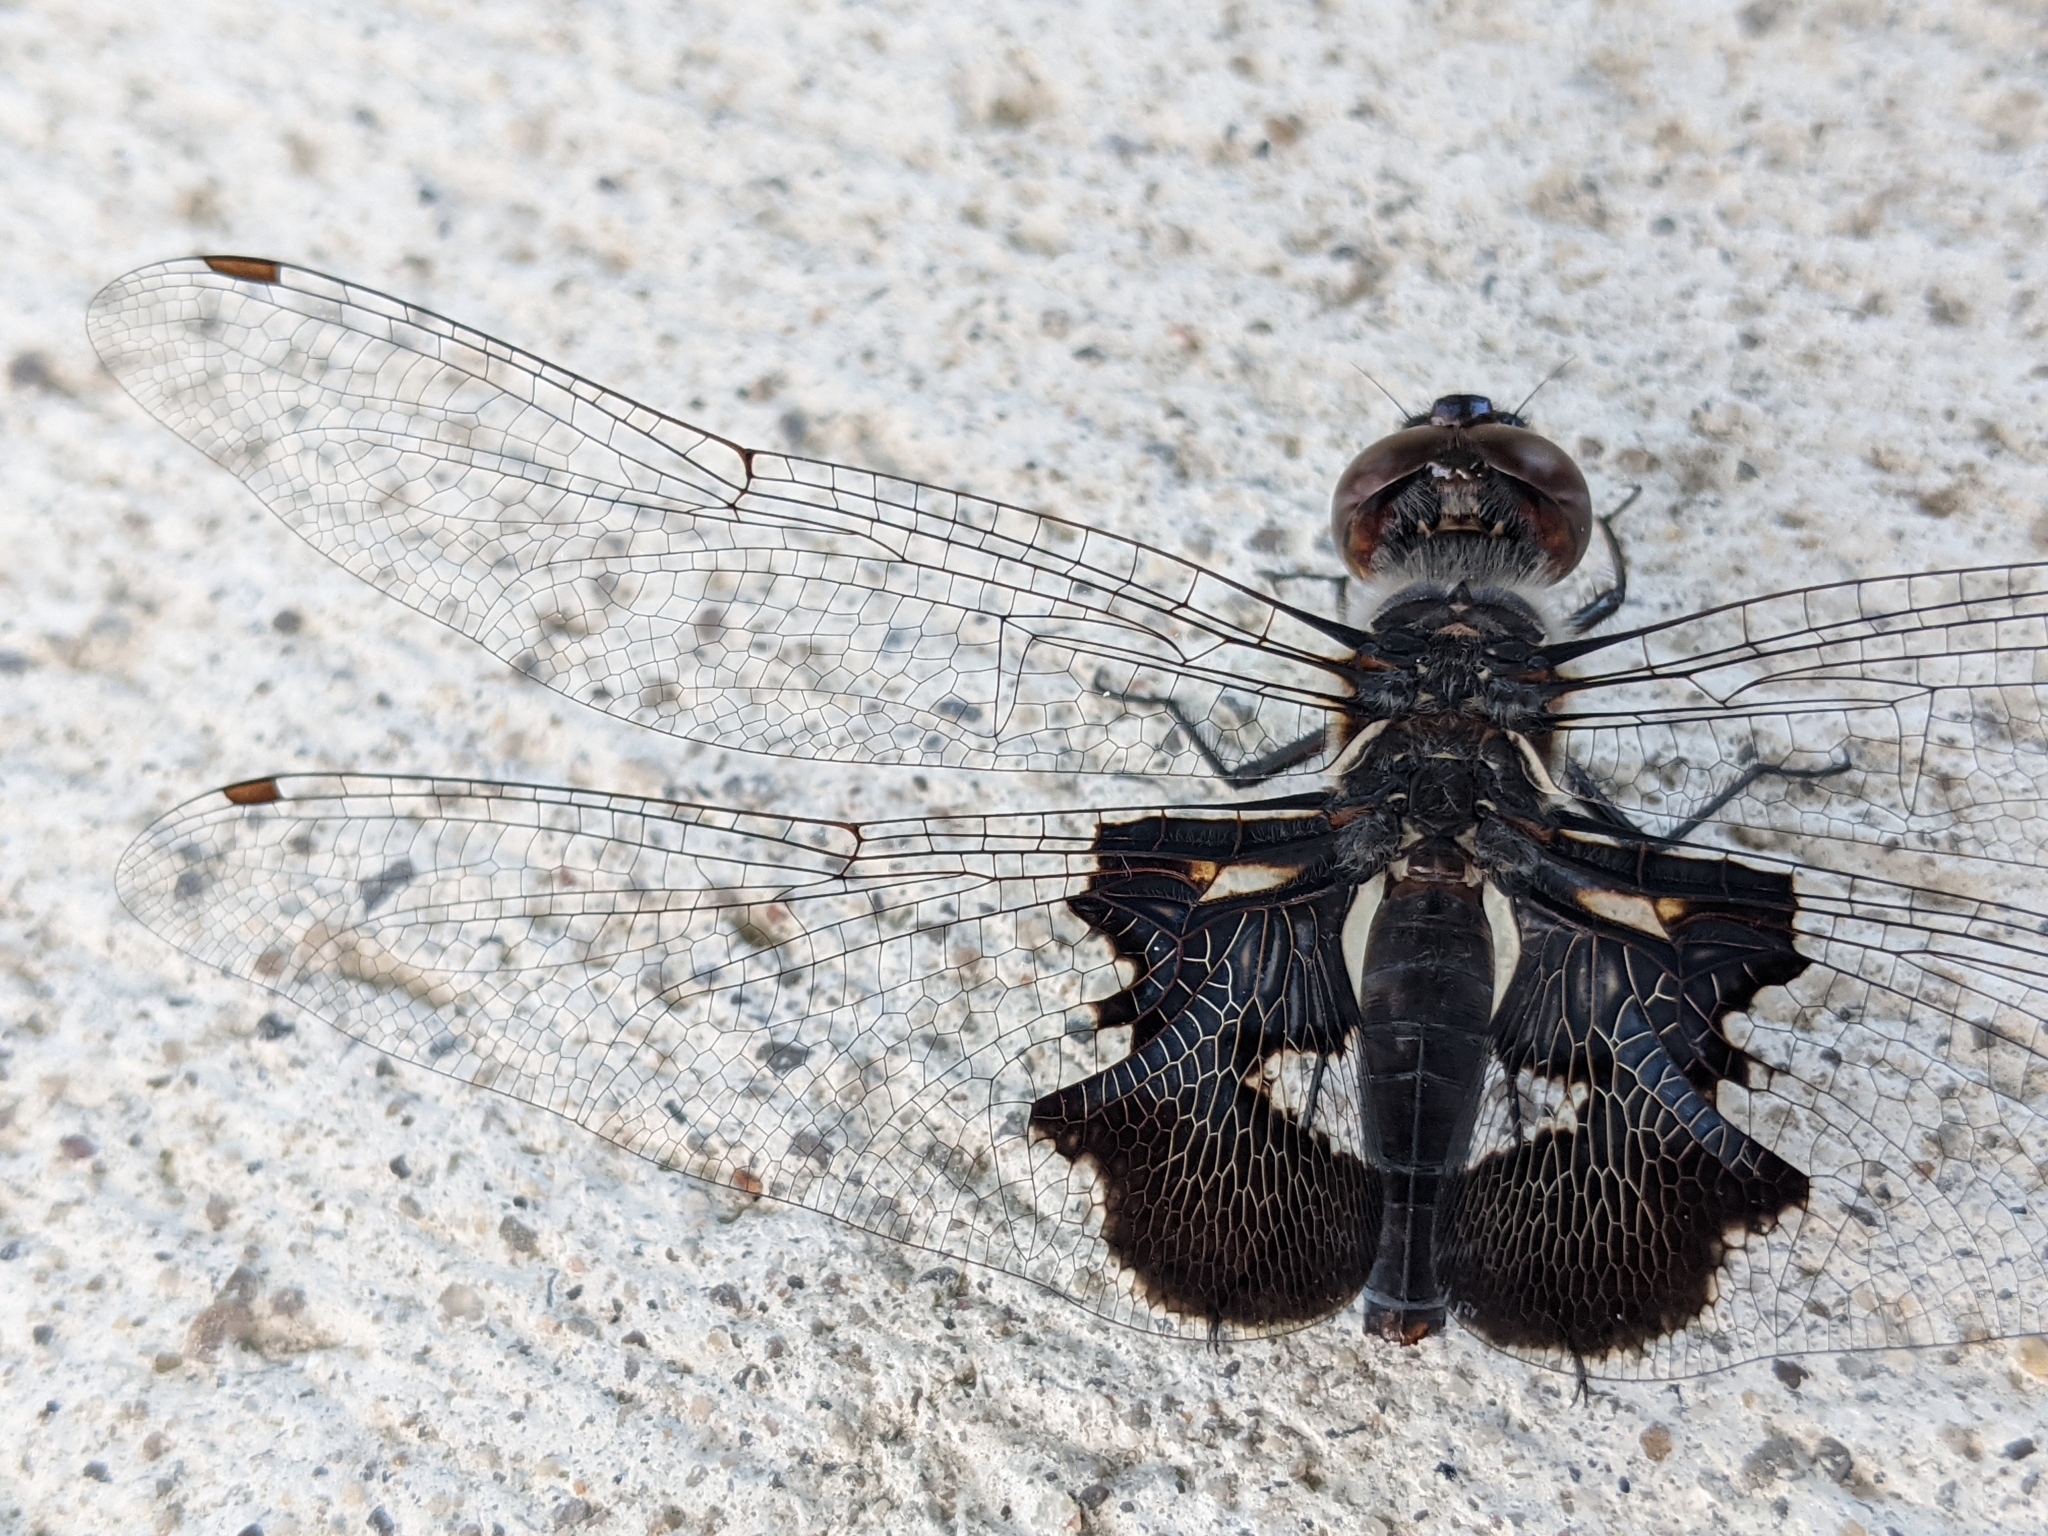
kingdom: Animalia
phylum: Arthropoda
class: Insecta
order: Odonata
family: Libellulidae
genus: Tramea
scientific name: Tramea lacerata
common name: Black saddlebags
